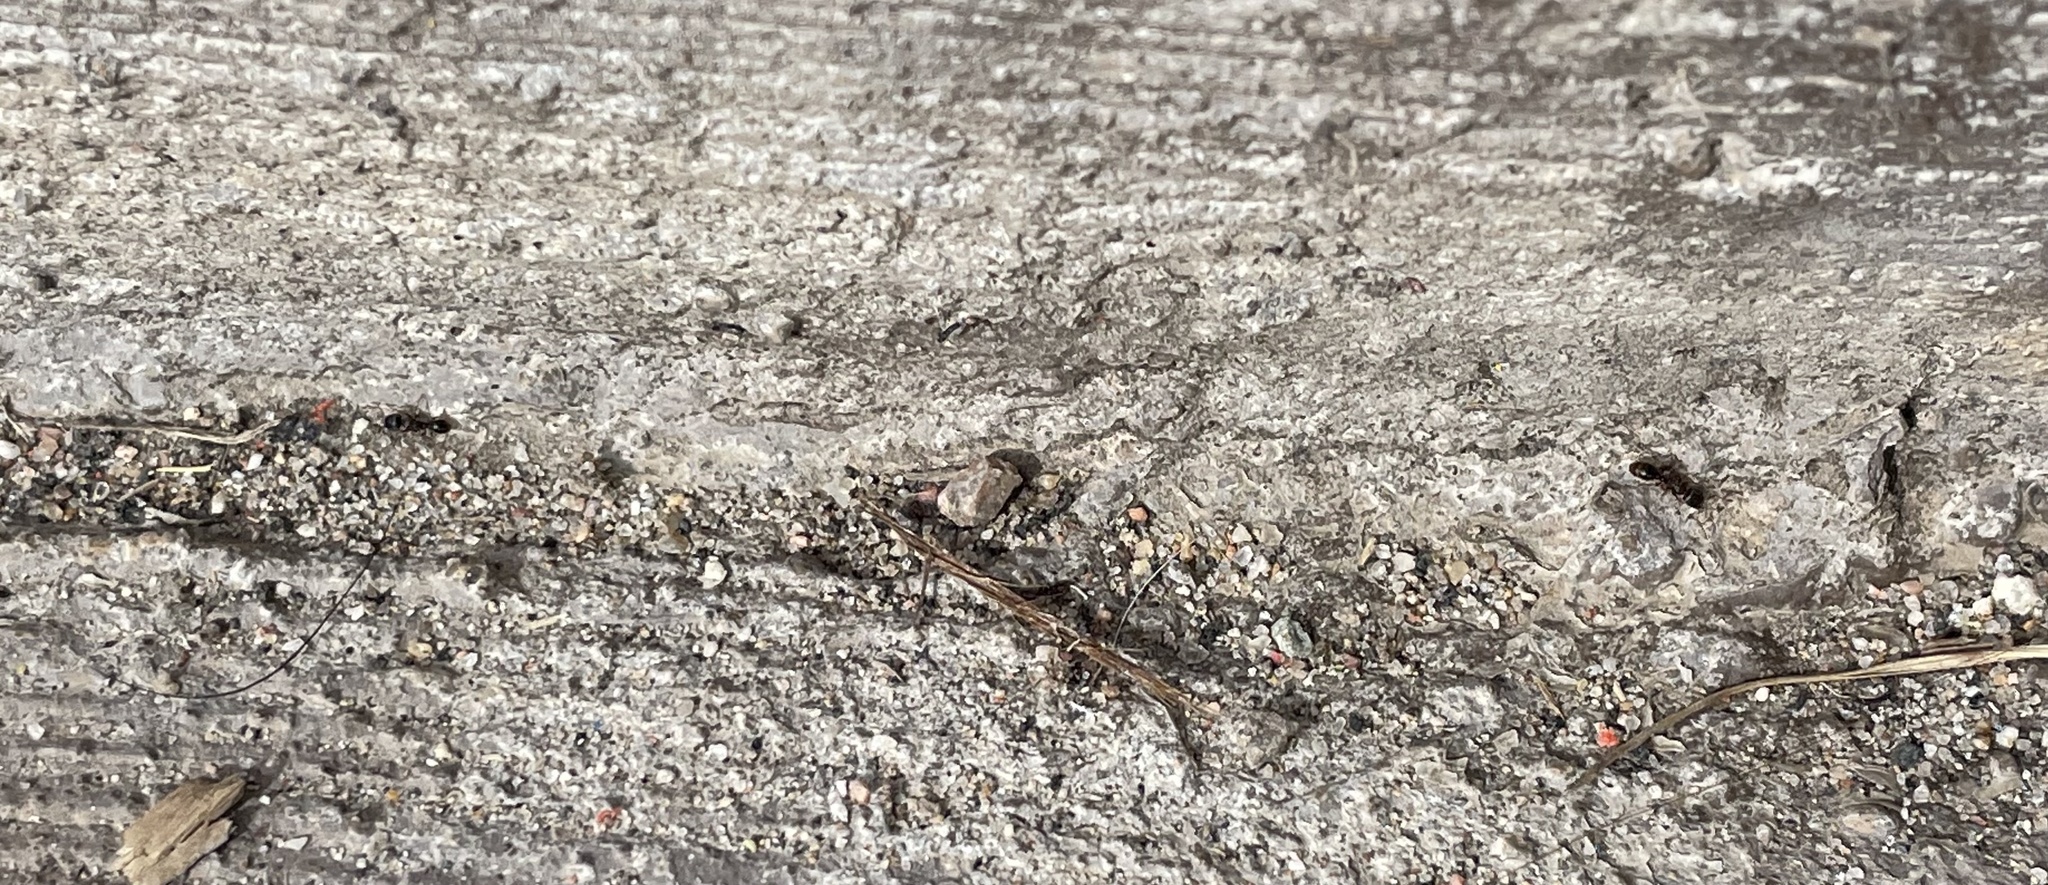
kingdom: Animalia
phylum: Arthropoda
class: Insecta
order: Hymenoptera
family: Formicidae
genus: Tetramorium
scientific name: Tetramorium immigrans
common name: Pavement ant
